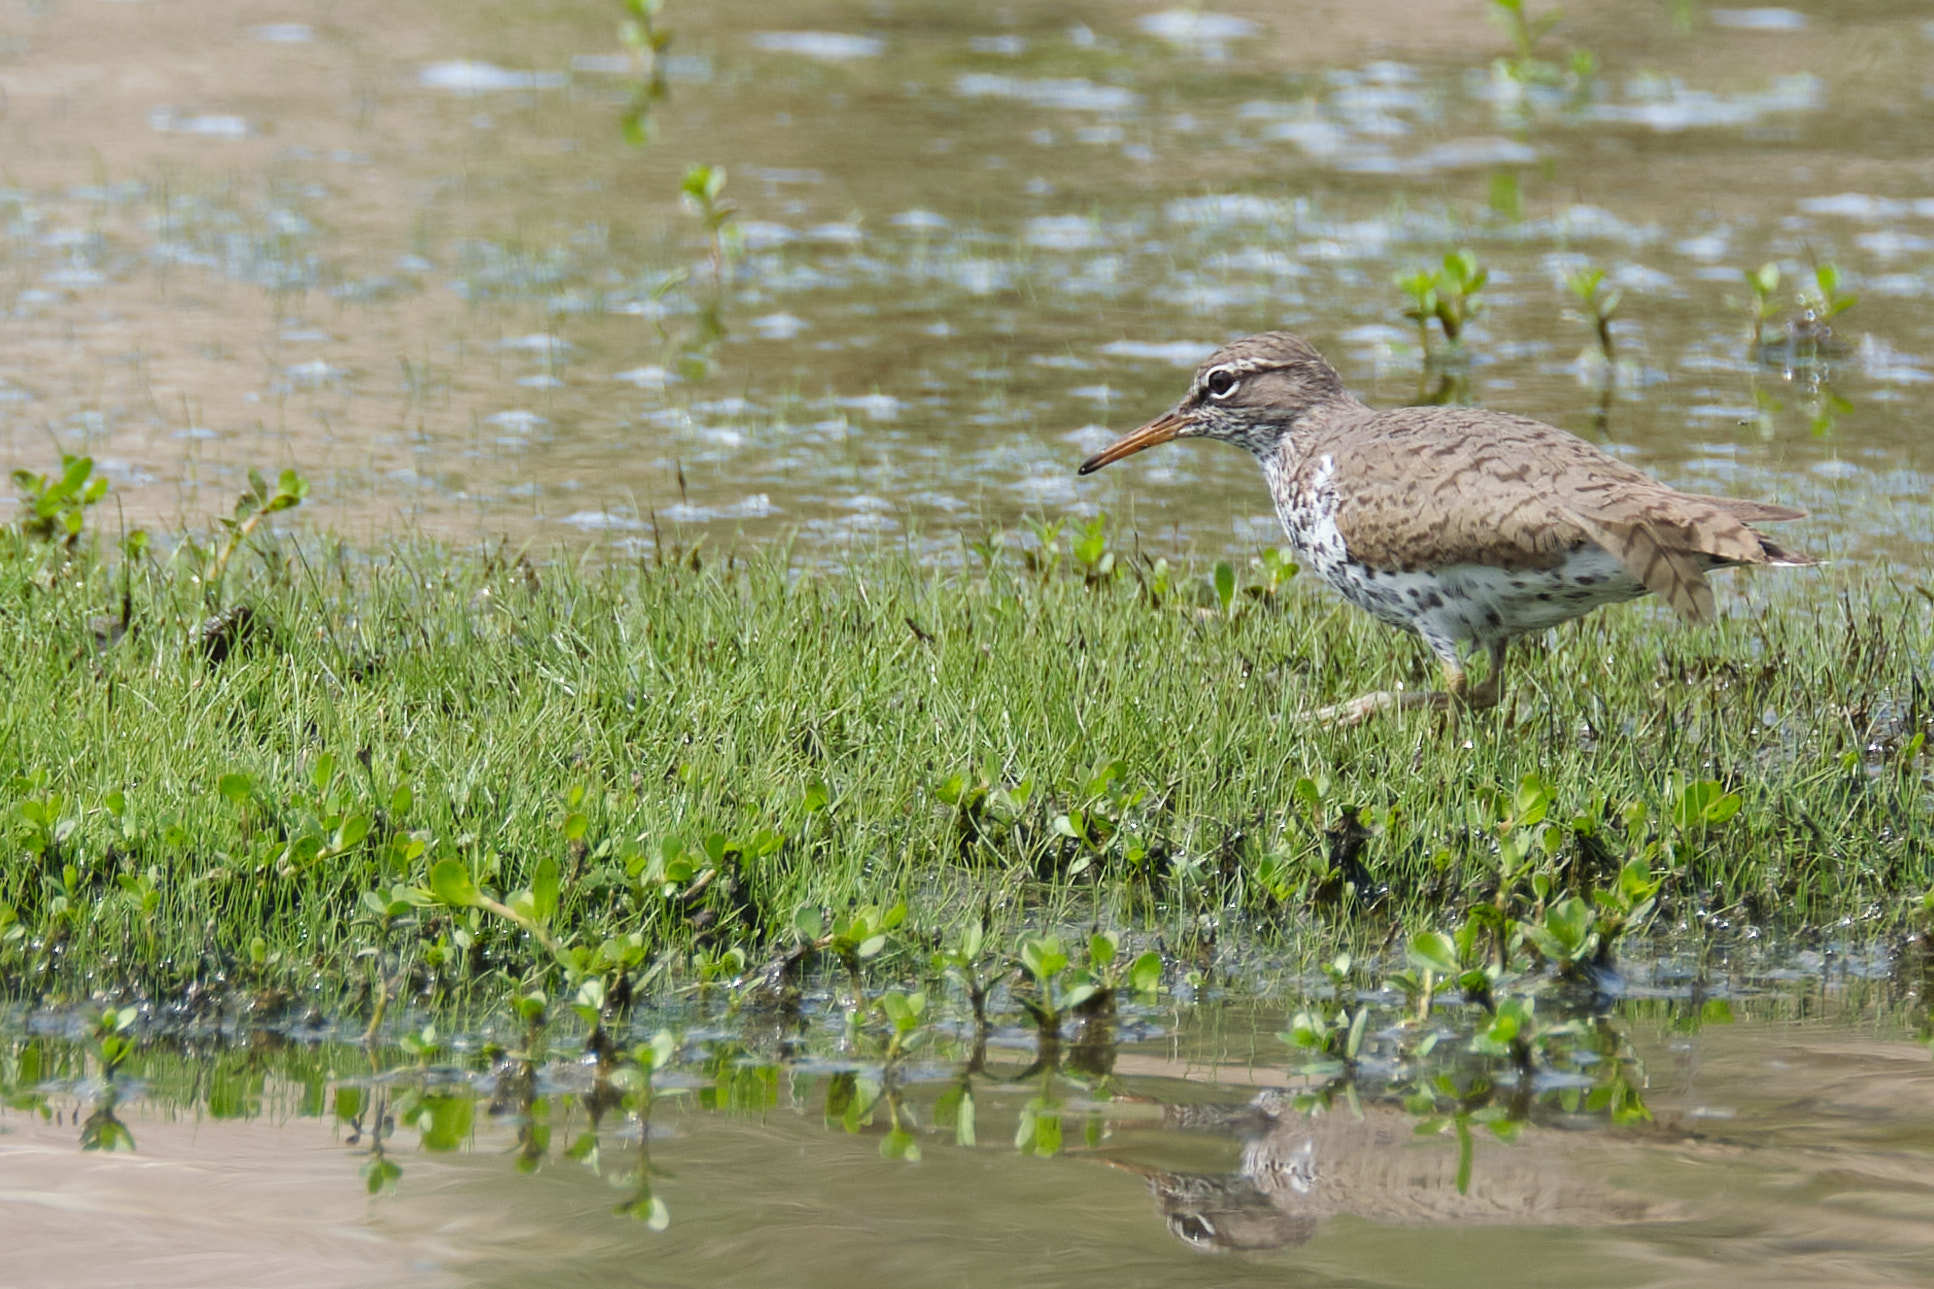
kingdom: Animalia
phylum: Chordata
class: Aves
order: Charadriiformes
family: Scolopacidae
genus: Actitis
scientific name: Actitis macularius
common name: Spotted sandpiper
